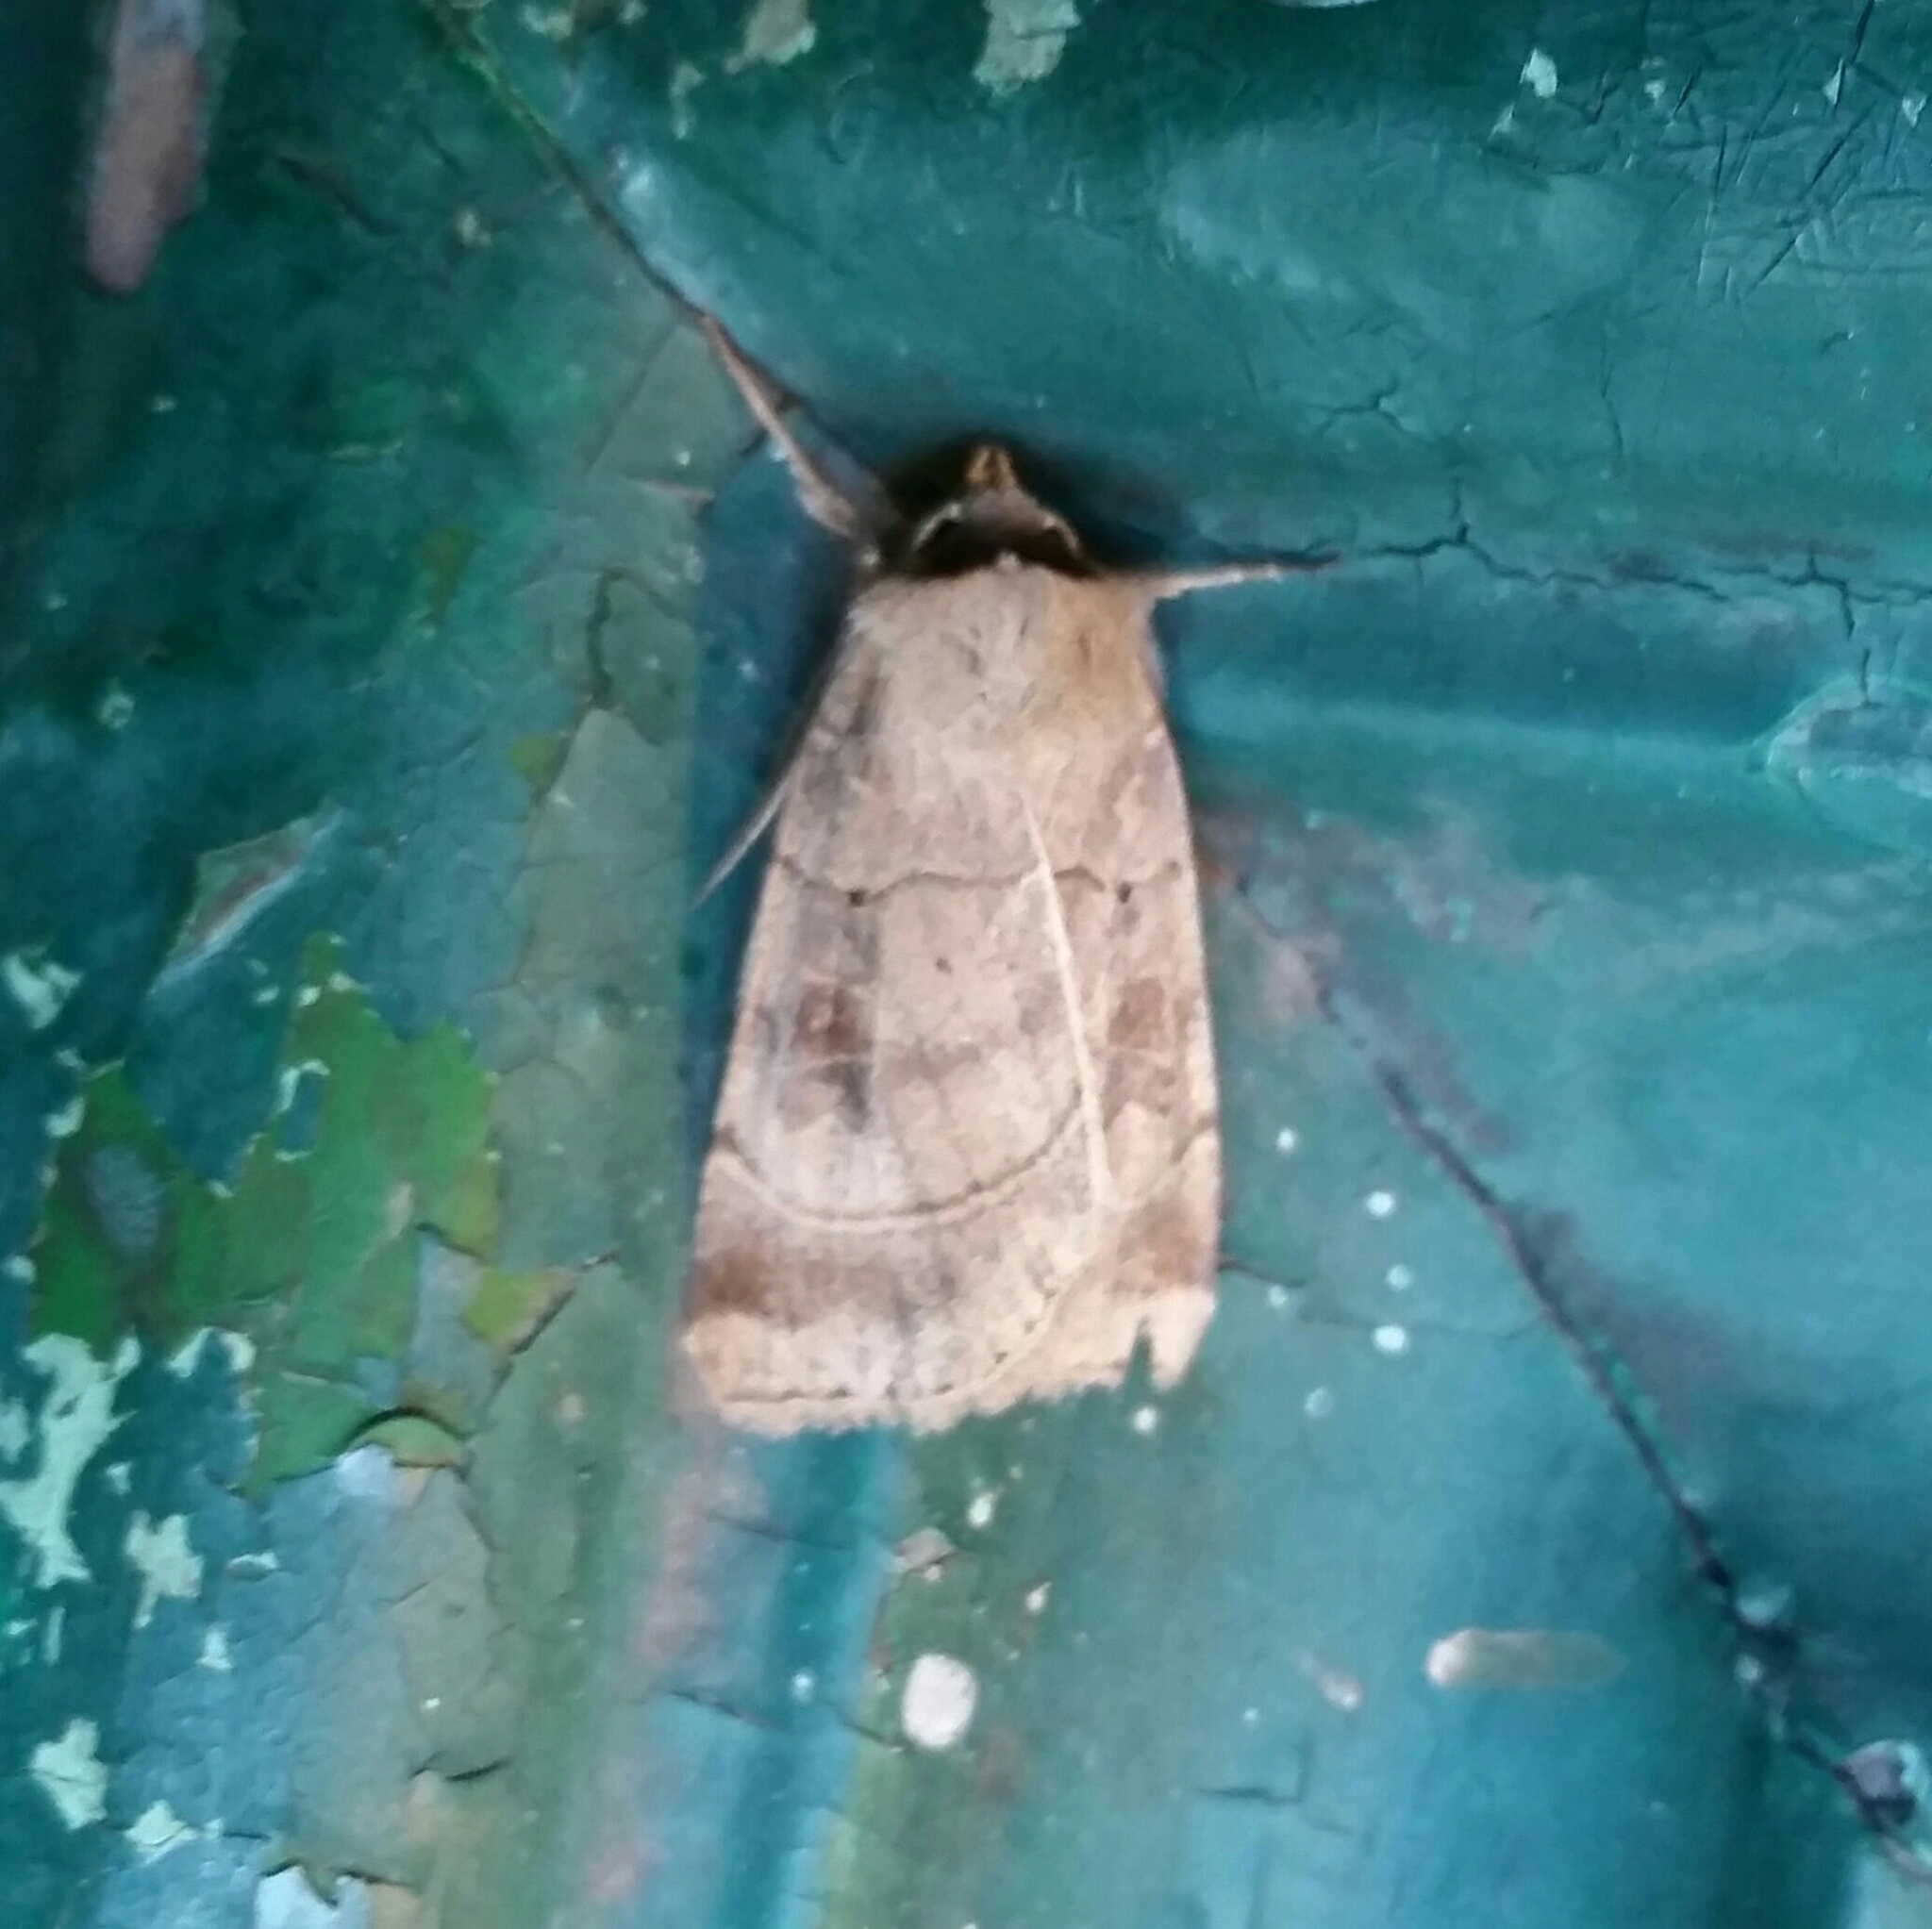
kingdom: Animalia
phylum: Arthropoda
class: Insecta
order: Lepidoptera
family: Noctuidae
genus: Agnorisma
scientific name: Agnorisma badinodis
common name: Pale-banded dart
